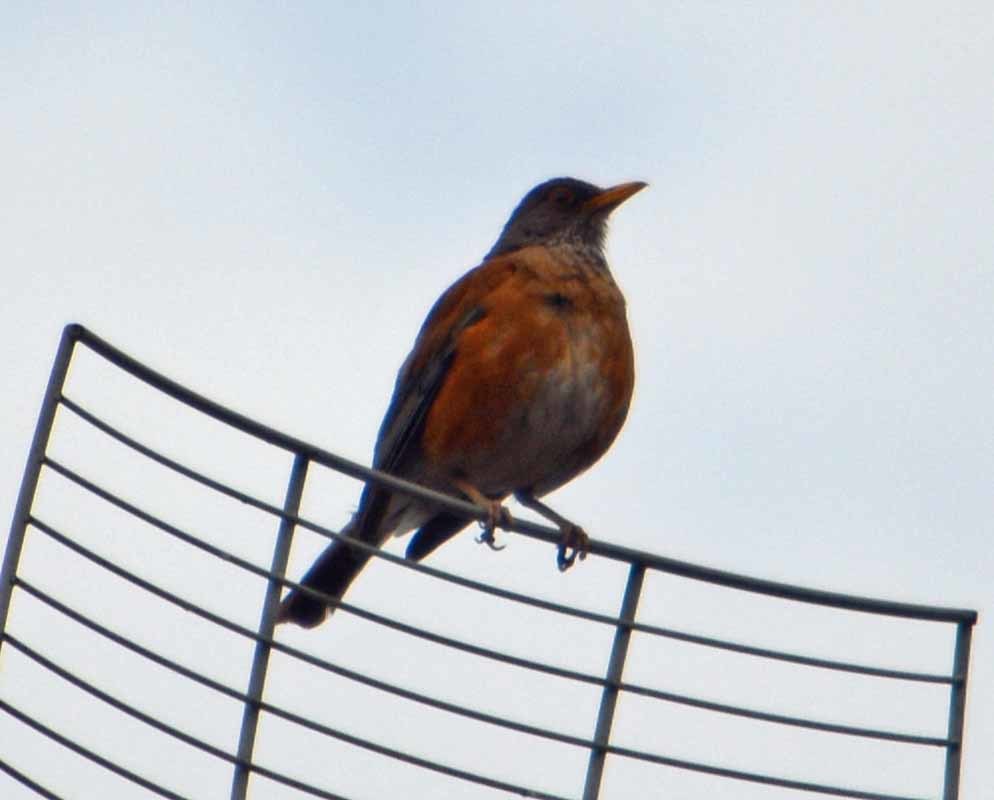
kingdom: Animalia
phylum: Chordata
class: Aves
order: Passeriformes
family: Turdidae
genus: Turdus
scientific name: Turdus rufopalliatus
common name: Rufous-backed robin
